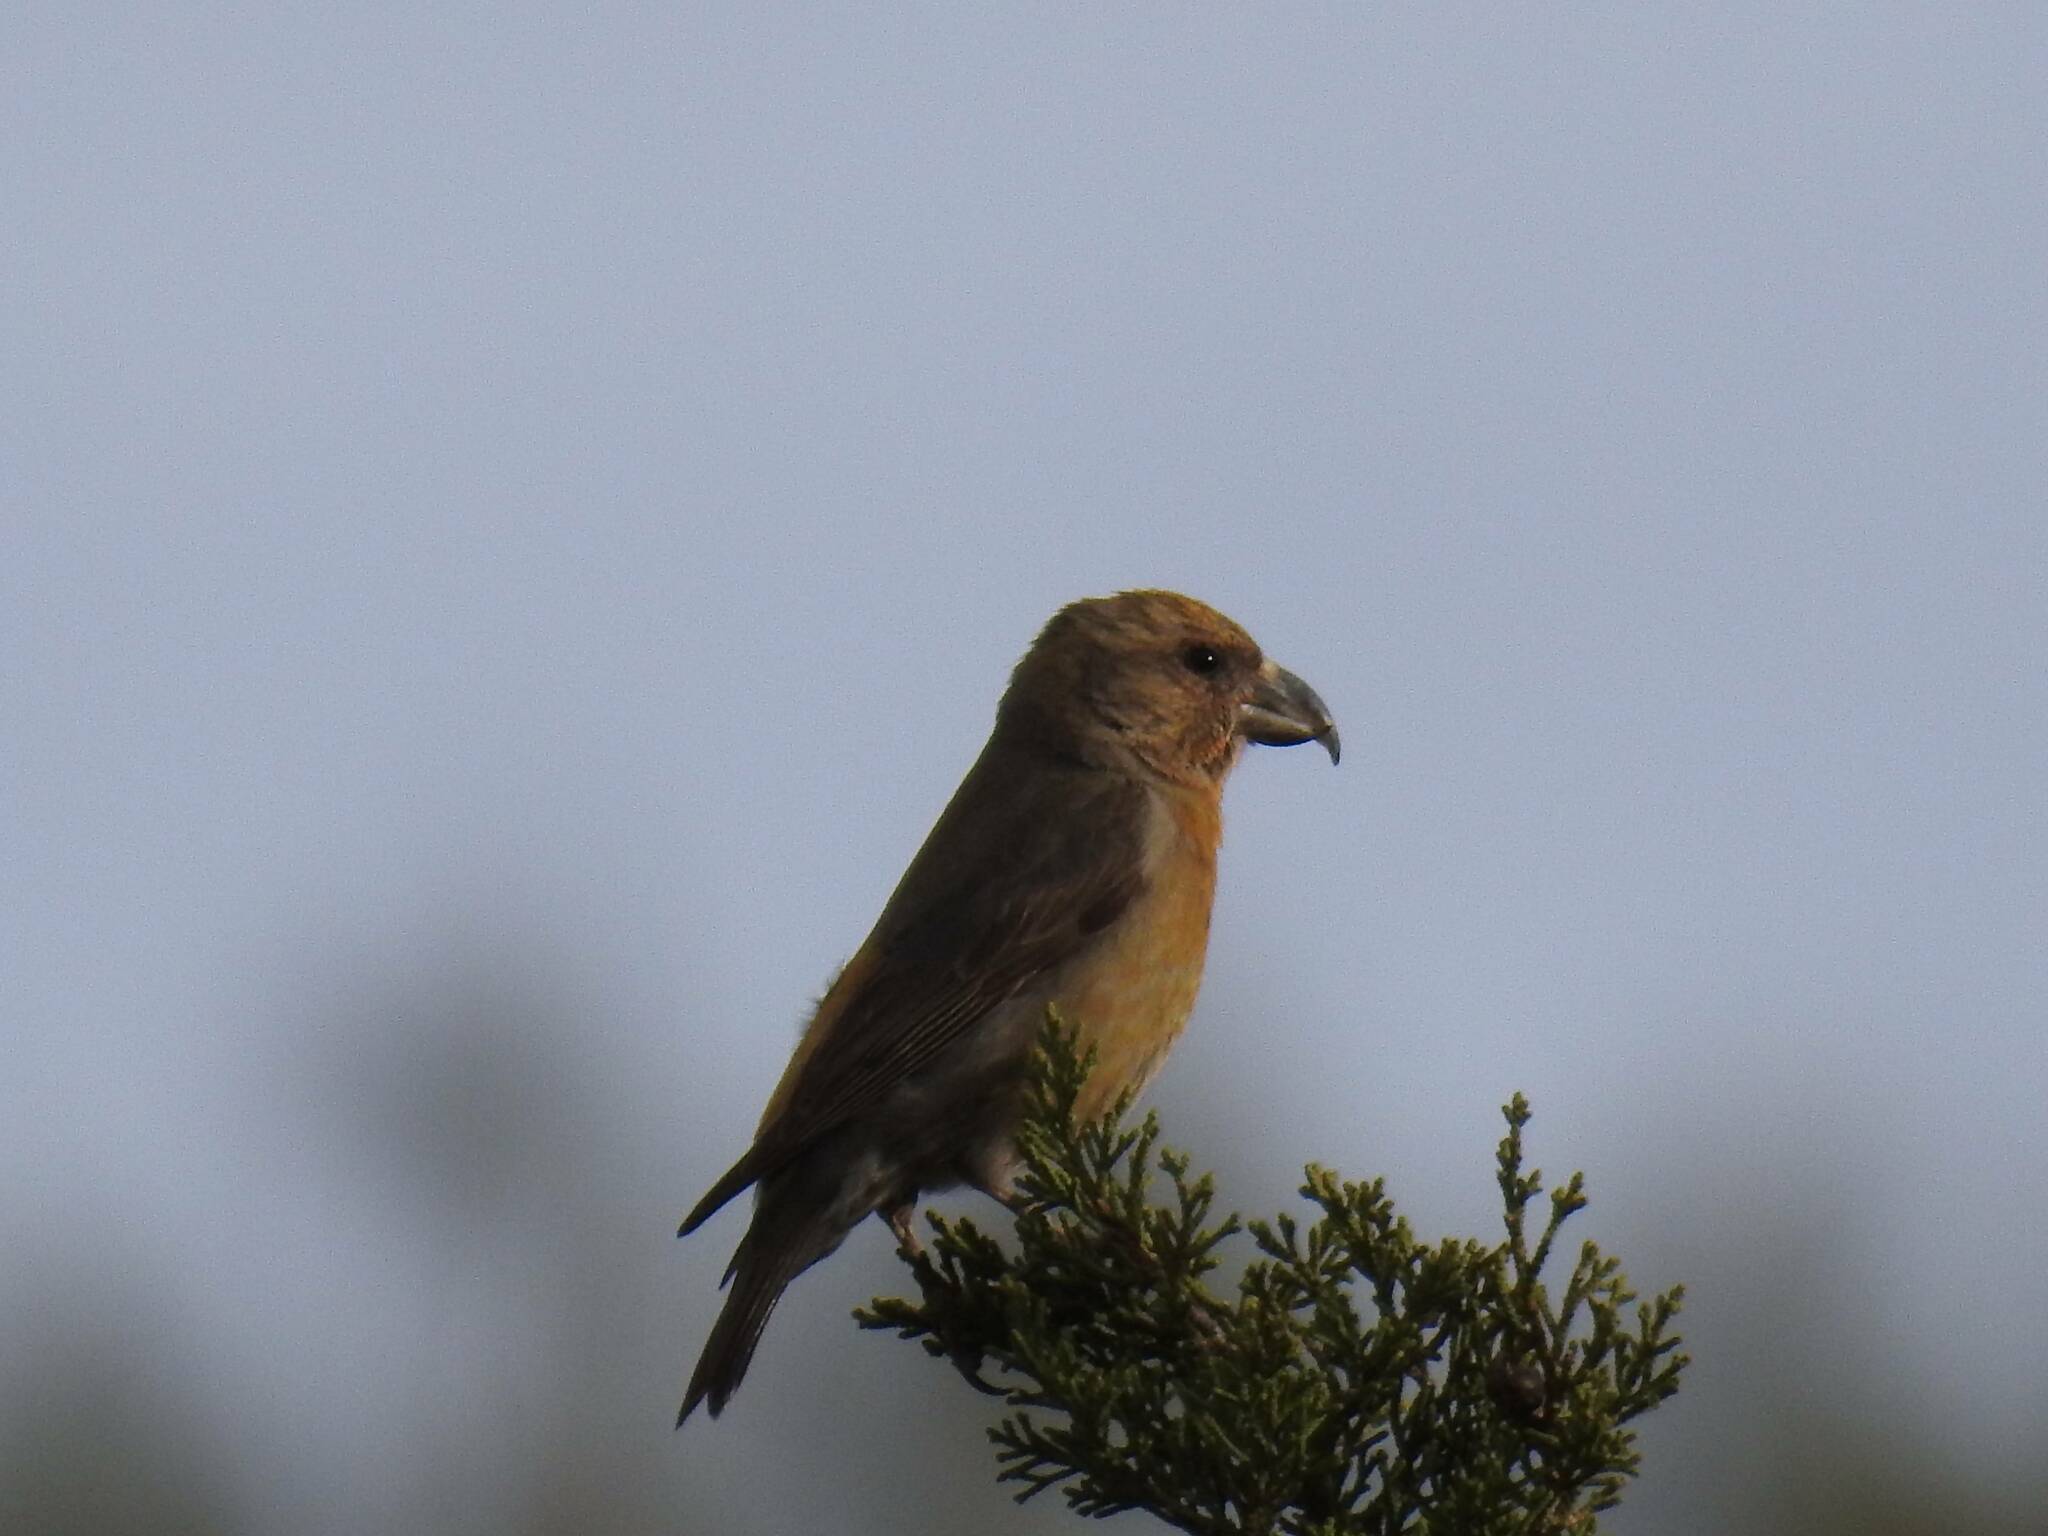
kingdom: Animalia
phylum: Chordata
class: Aves
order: Passeriformes
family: Fringillidae
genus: Loxia
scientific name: Loxia curvirostra
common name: Red crossbill
